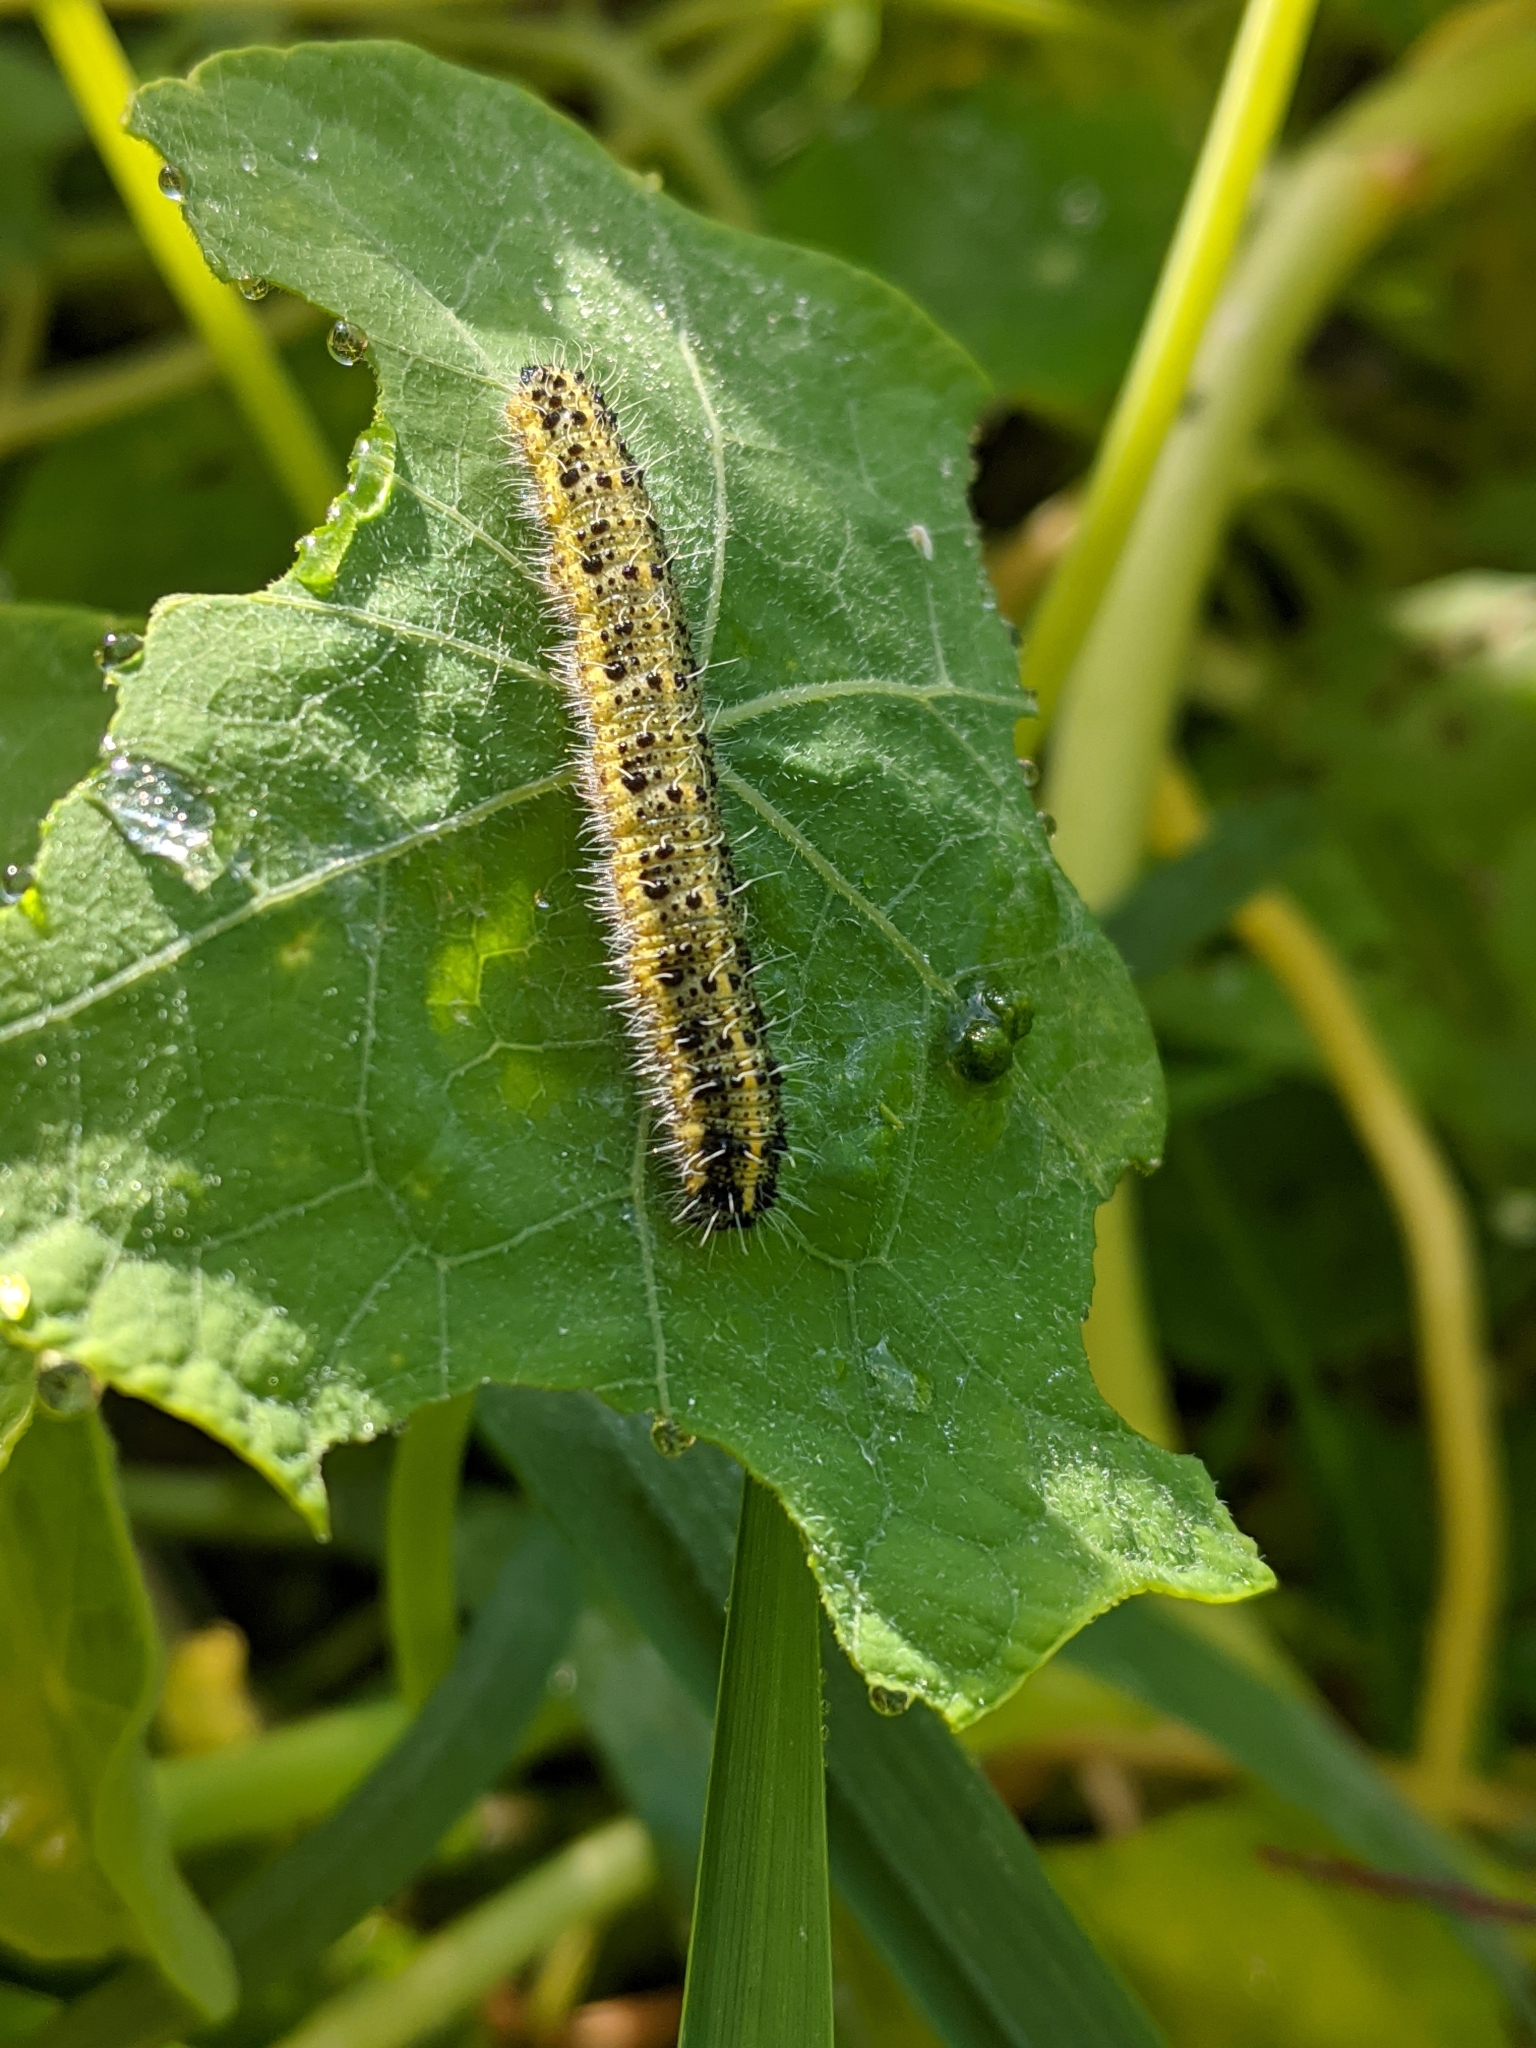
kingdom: Animalia
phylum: Arthropoda
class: Insecta
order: Lepidoptera
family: Pieridae
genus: Pieris
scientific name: Pieris brassicae
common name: Large white
